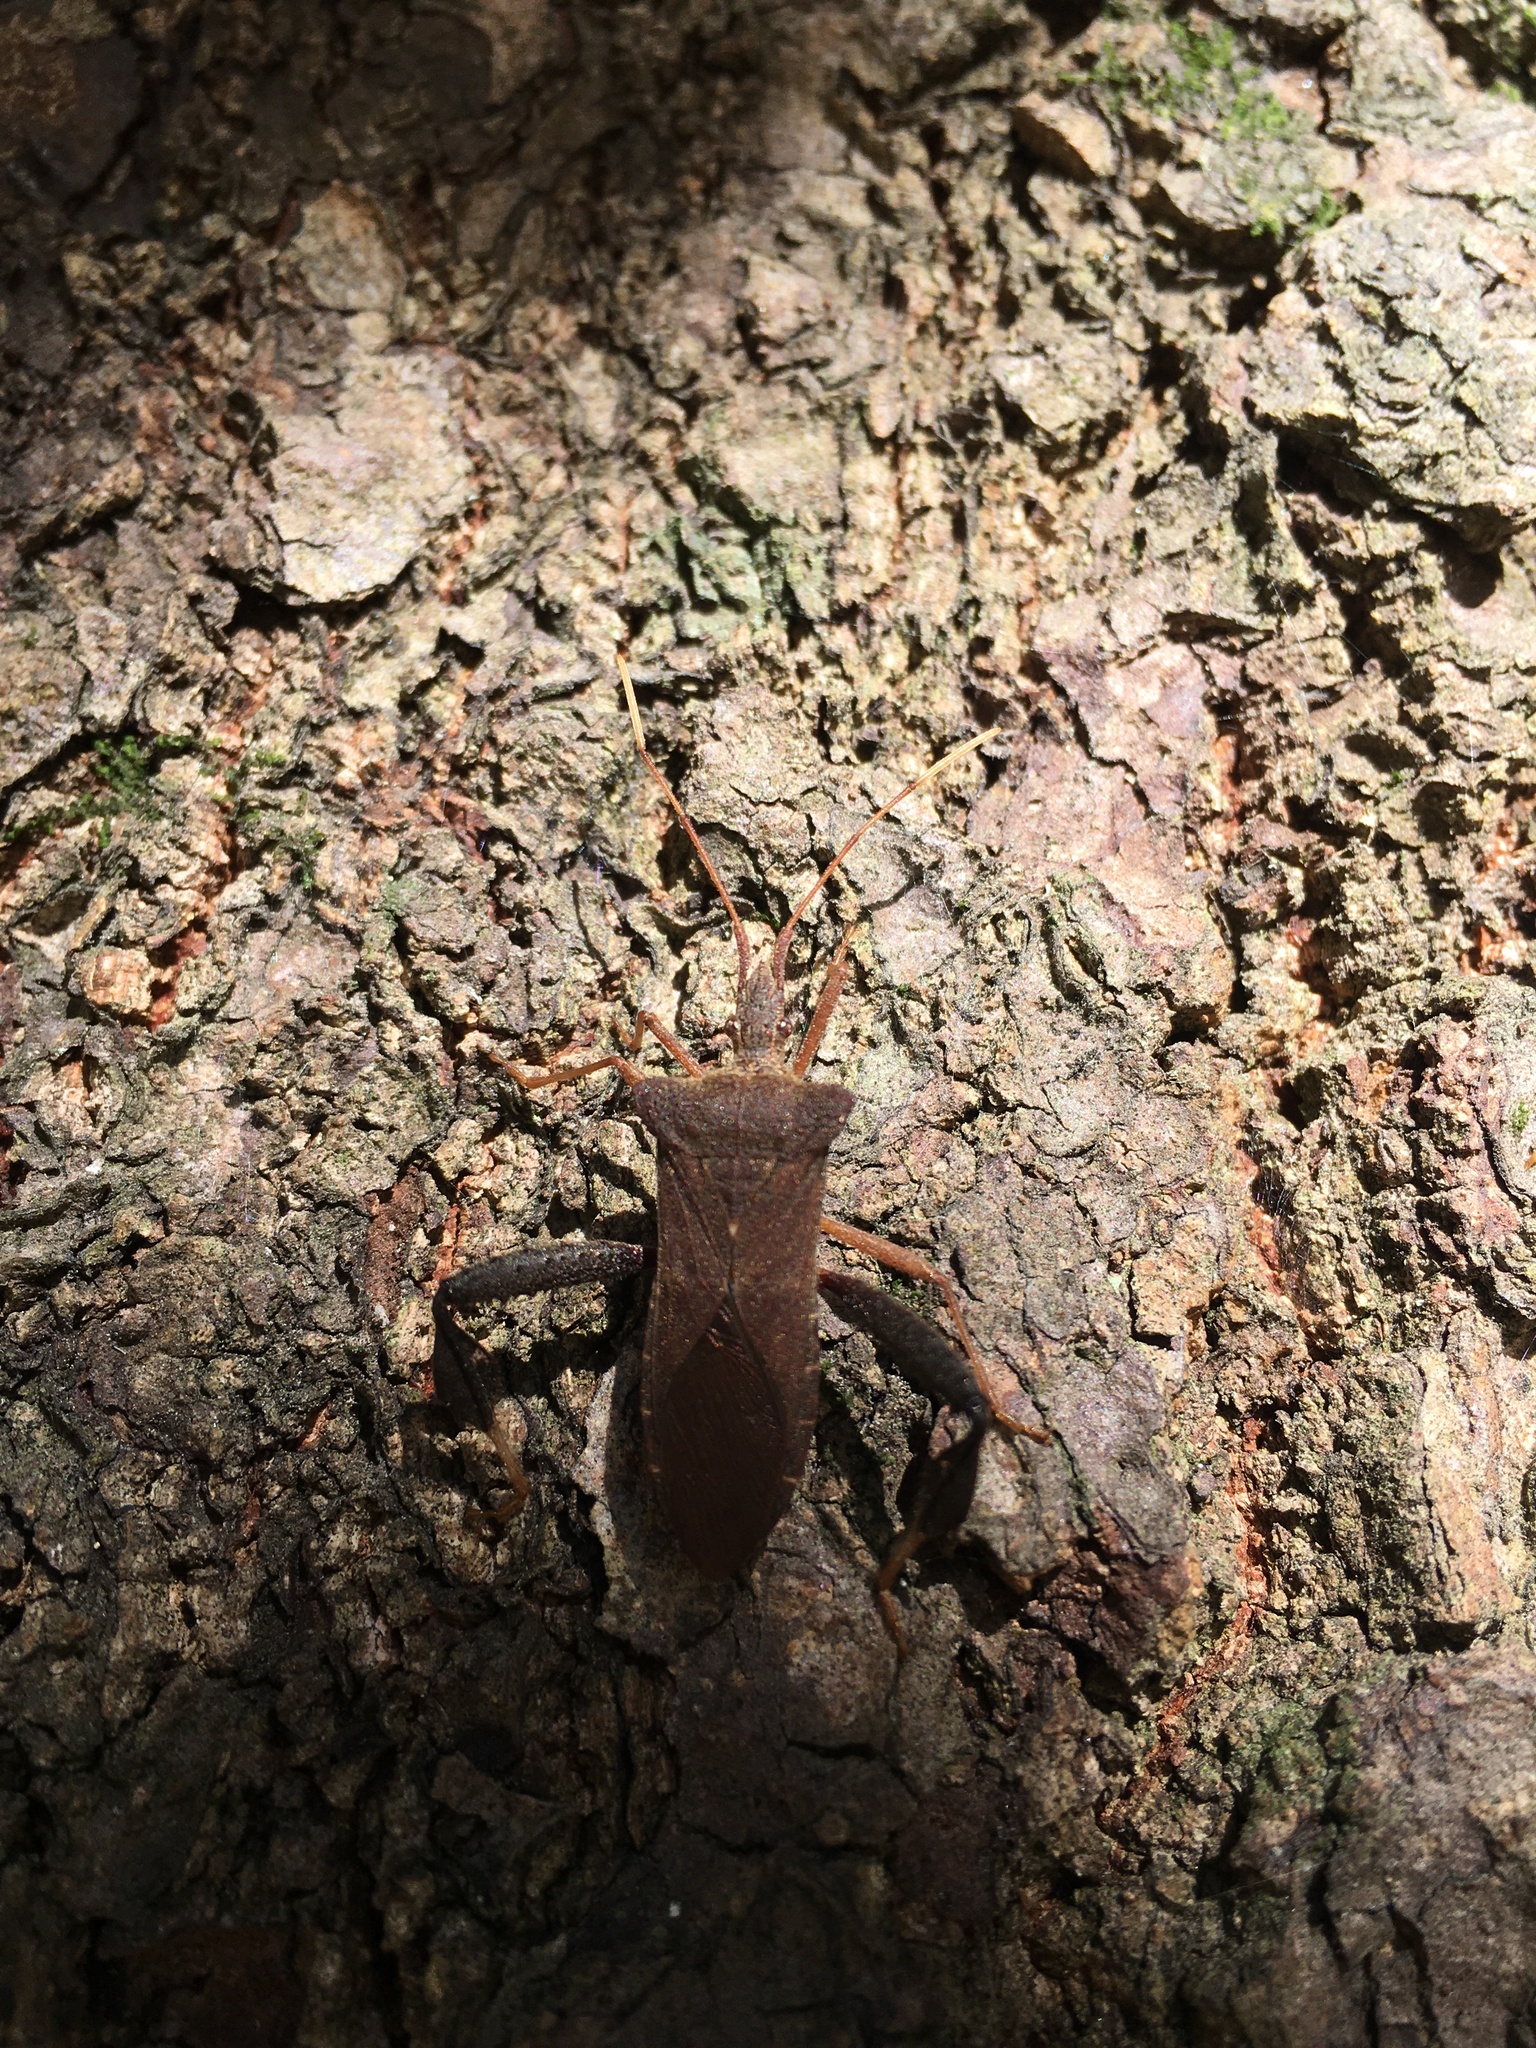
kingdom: Animalia
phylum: Arthropoda
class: Insecta
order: Hemiptera
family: Coreidae
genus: Acanthocephala
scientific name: Acanthocephala terminalis
